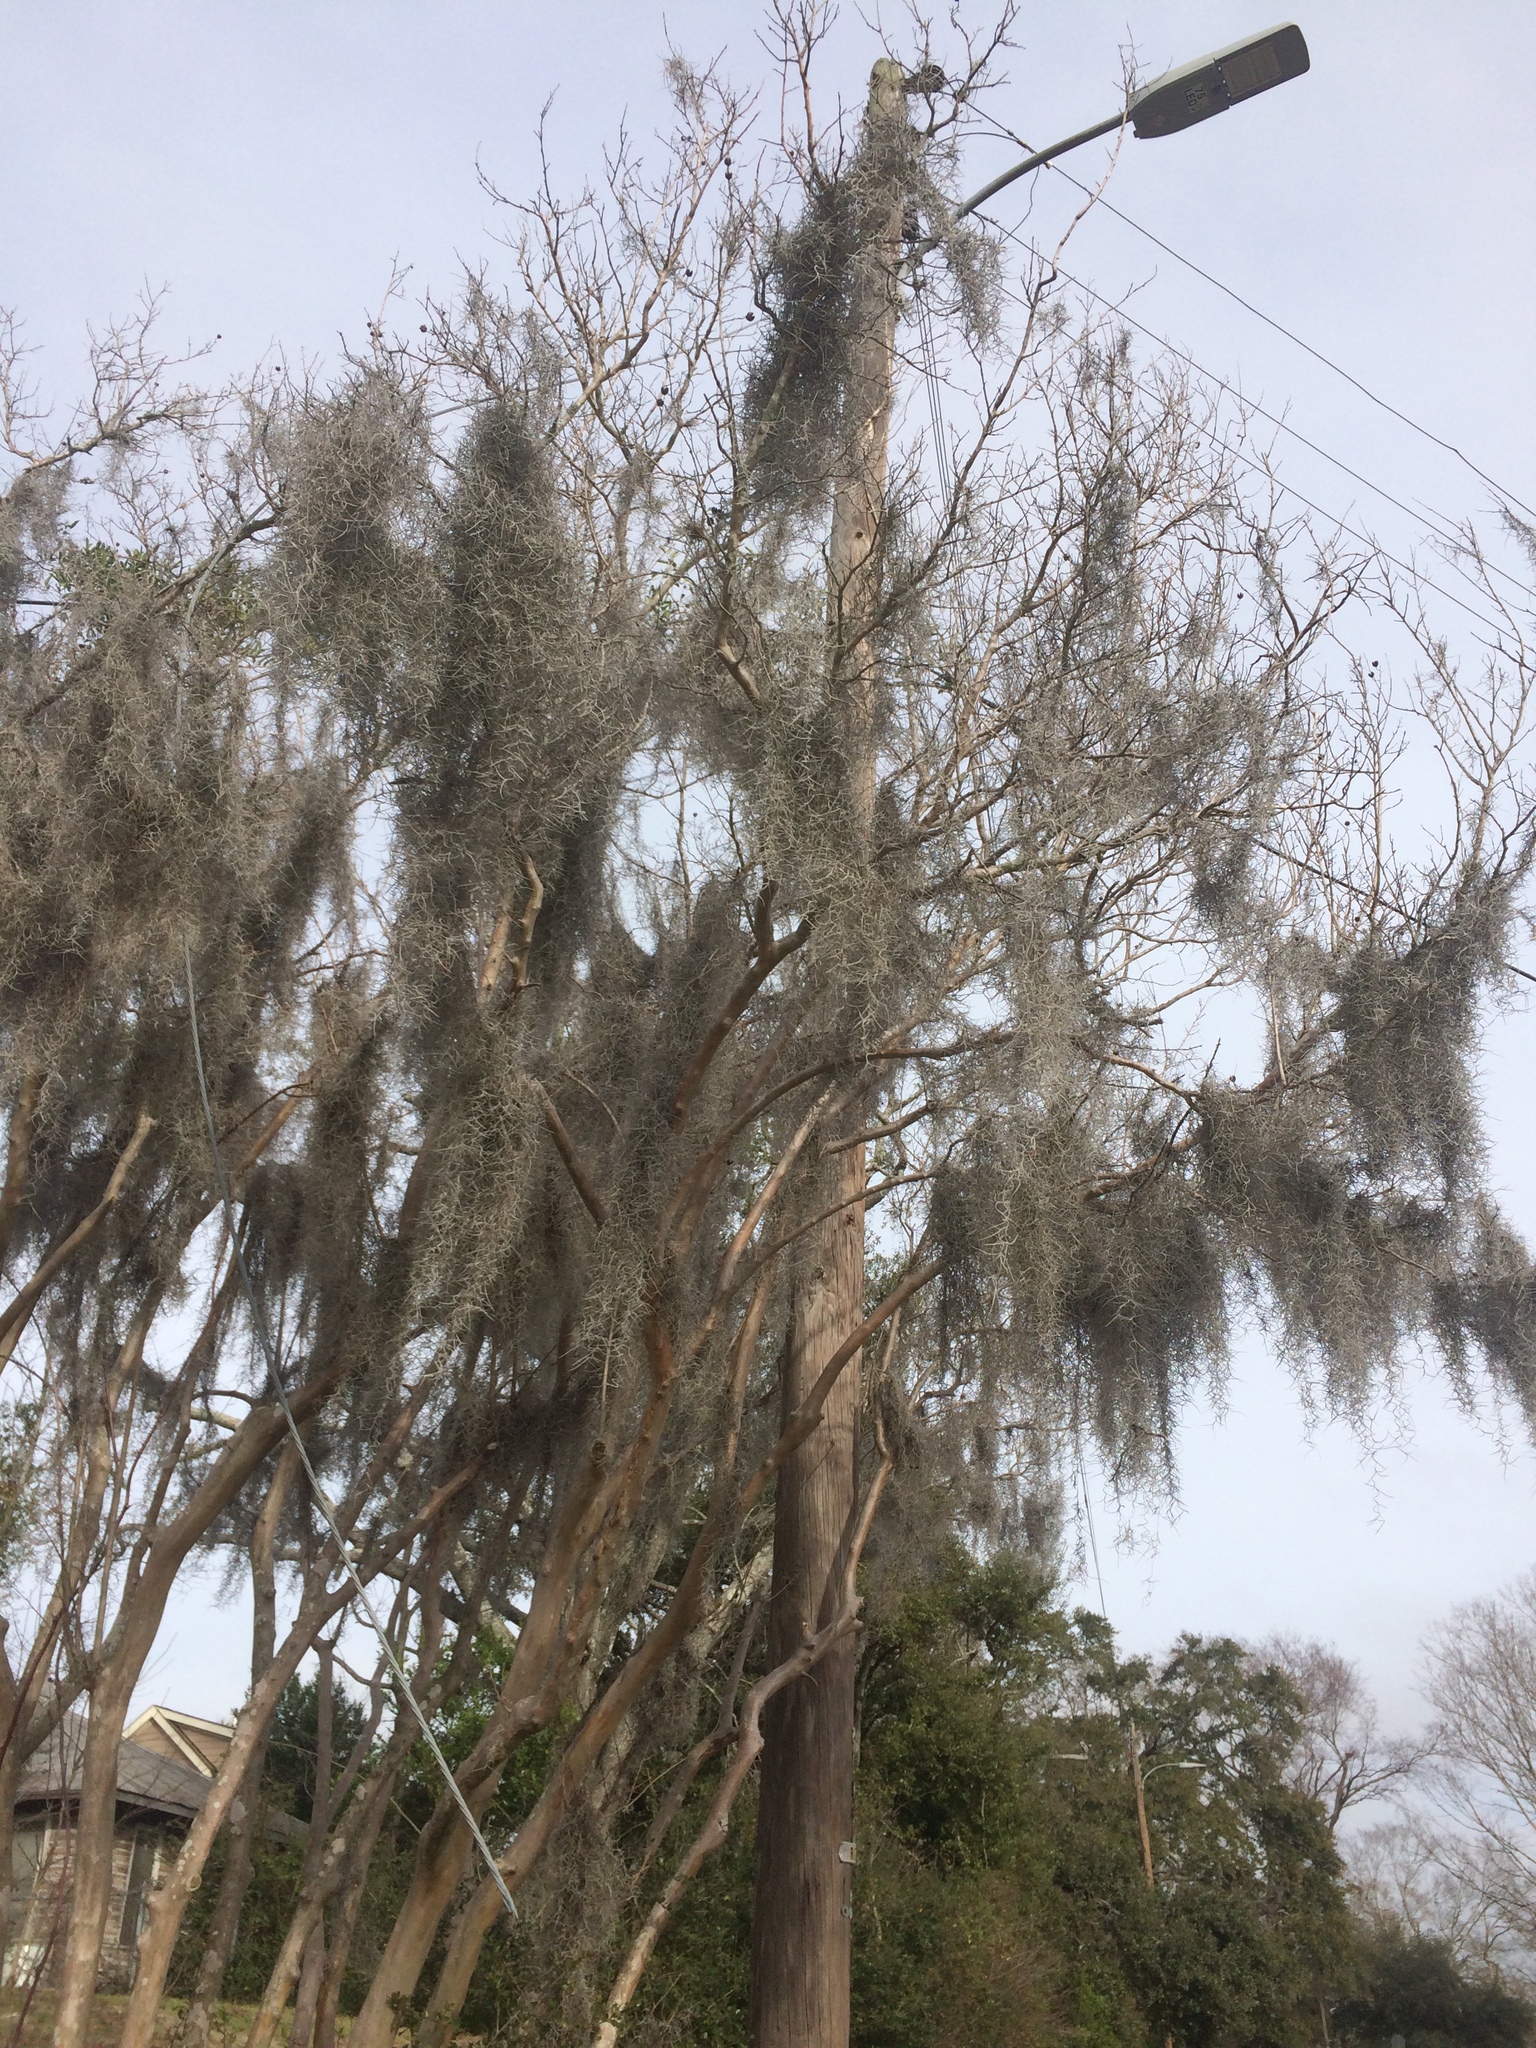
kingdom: Plantae
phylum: Tracheophyta
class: Liliopsida
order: Poales
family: Bromeliaceae
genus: Tillandsia
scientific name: Tillandsia usneoides
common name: Spanish moss
